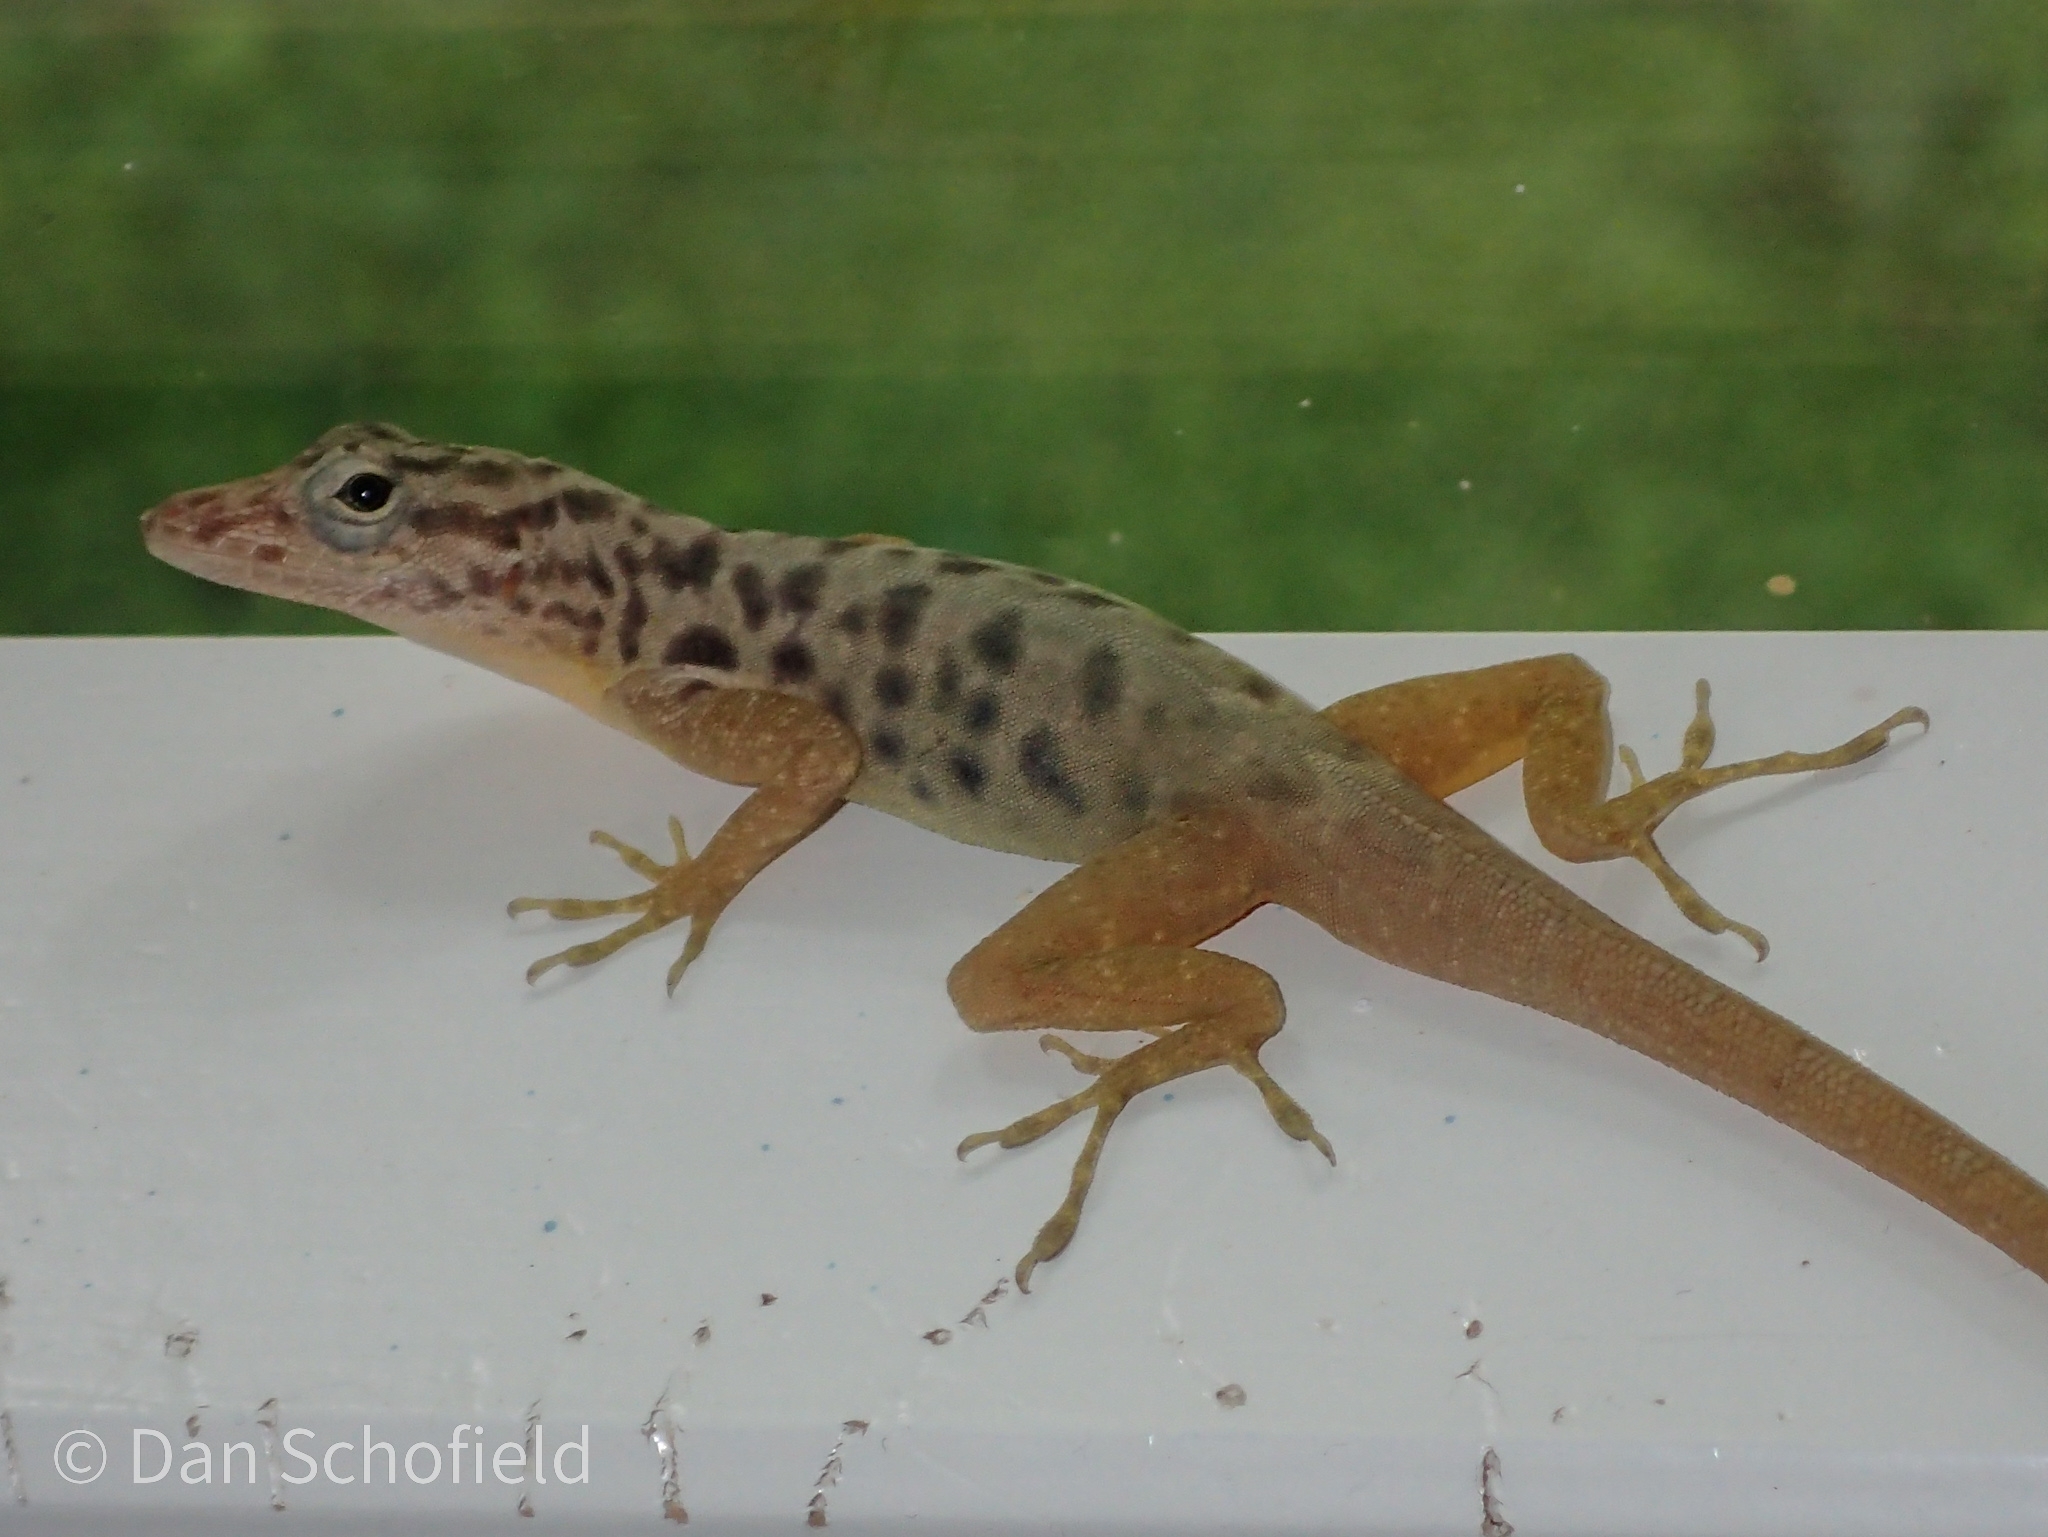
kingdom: Animalia
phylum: Chordata
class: Squamata
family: Dactyloidae
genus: Anolis
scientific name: Anolis sabanus
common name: Saba anole
